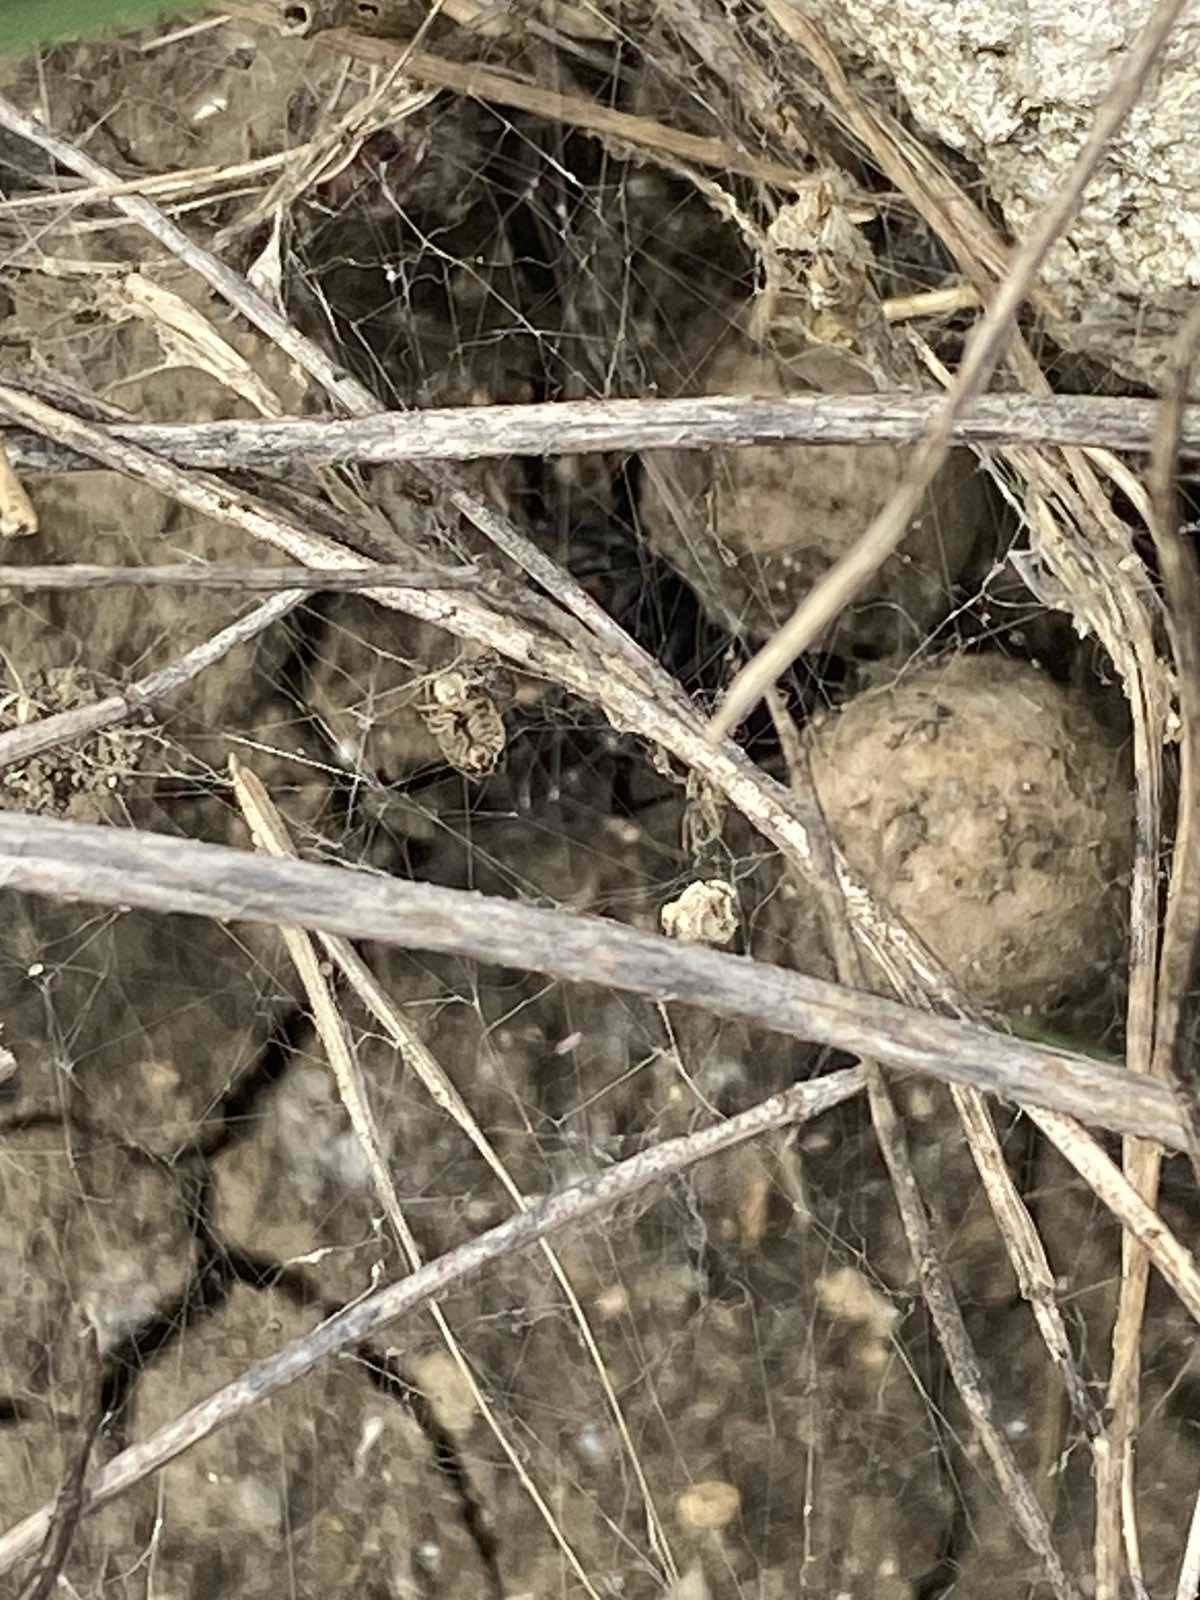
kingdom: Animalia
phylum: Arthropoda
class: Arachnida
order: Araneae
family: Theridiidae
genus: Latrodectus
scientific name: Latrodectus tredecimguttatus
